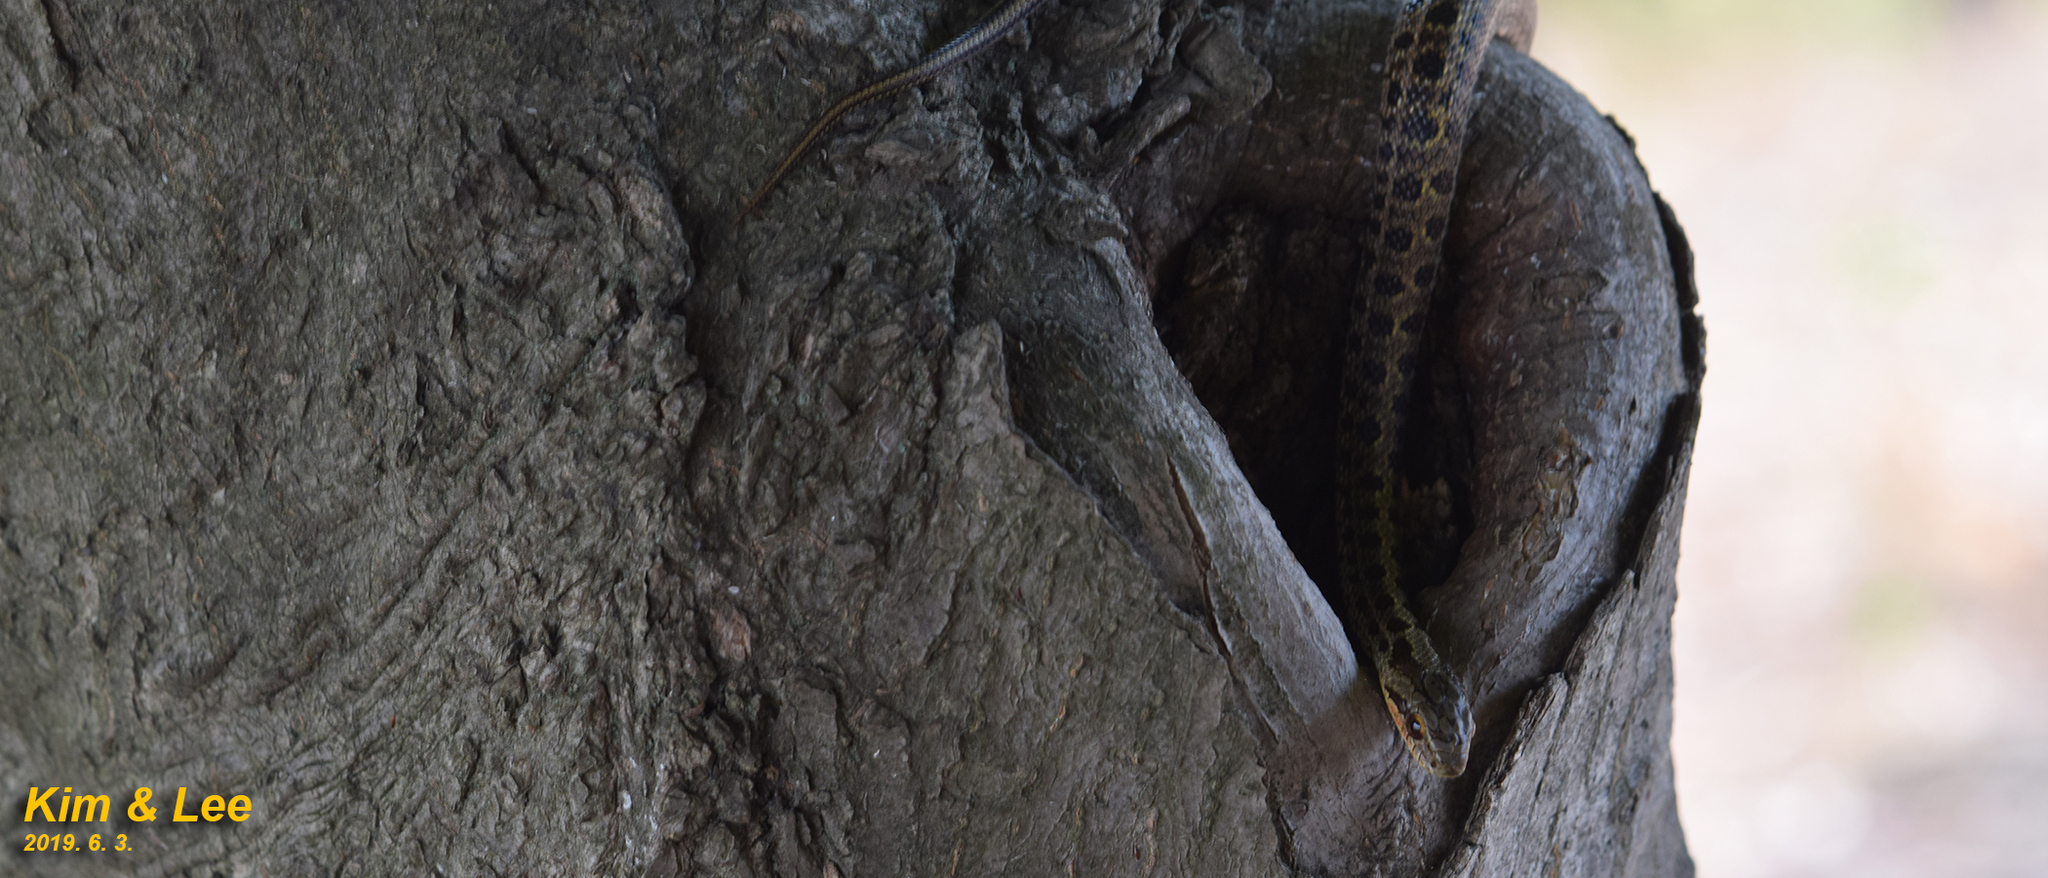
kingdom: Animalia
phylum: Chordata
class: Squamata
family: Colubridae
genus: Elaphe
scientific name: Elaphe dione
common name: Dione ratsnake
